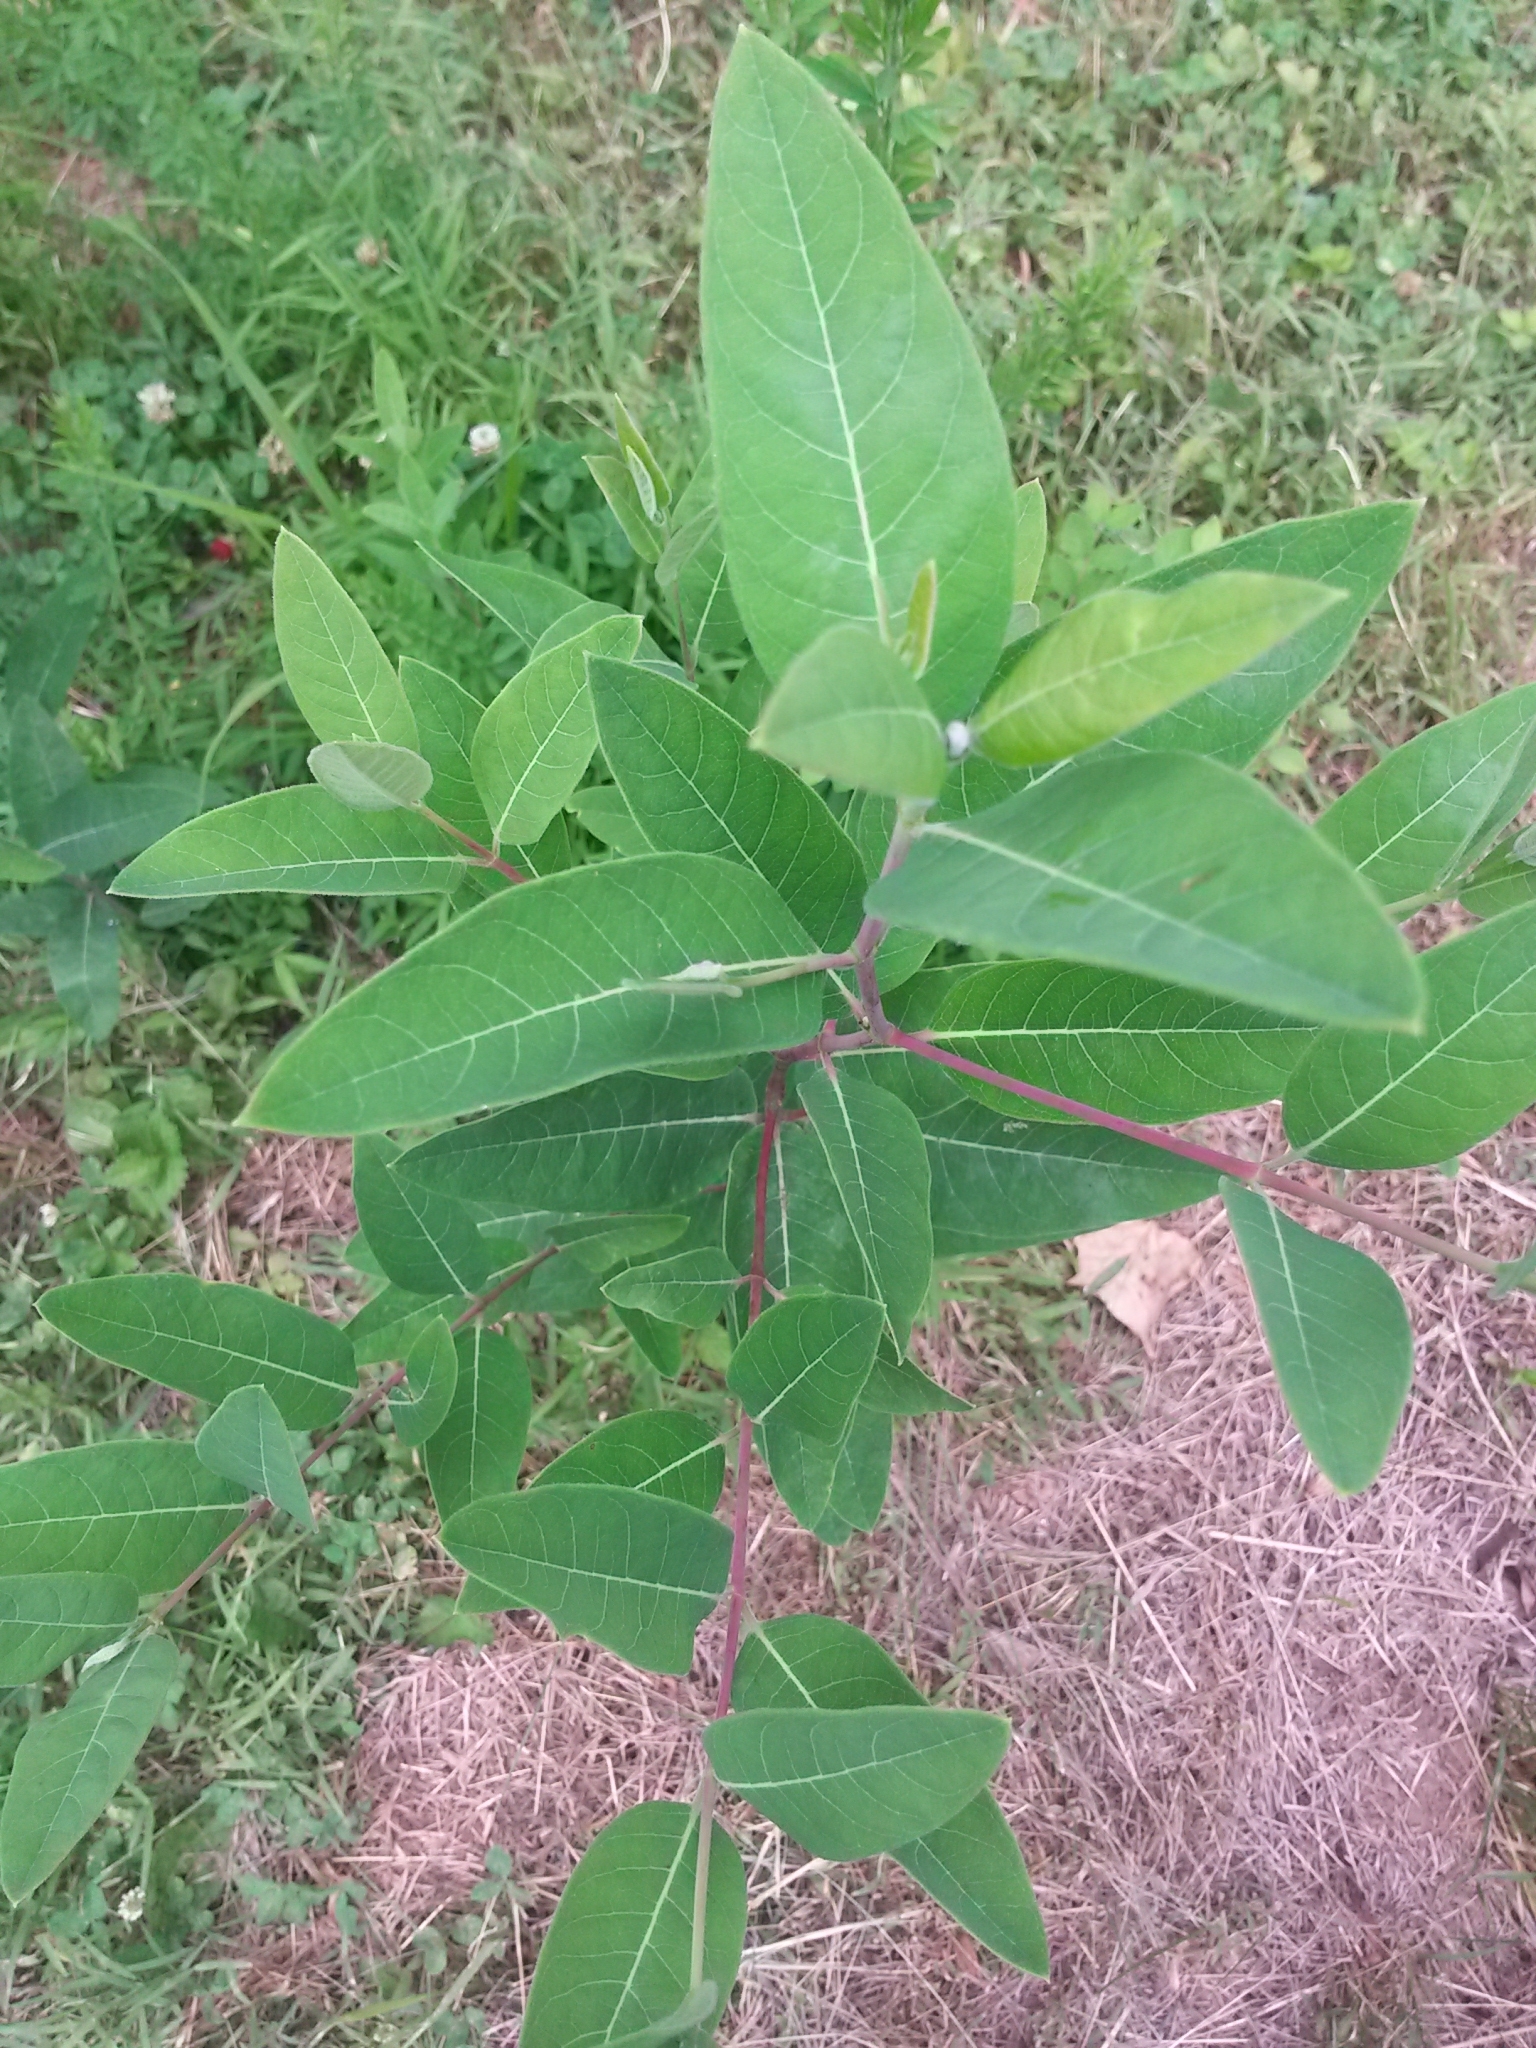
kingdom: Plantae
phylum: Tracheophyta
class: Magnoliopsida
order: Gentianales
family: Apocynaceae
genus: Apocynum
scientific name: Apocynum cannabinum
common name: Hemp dogbane
